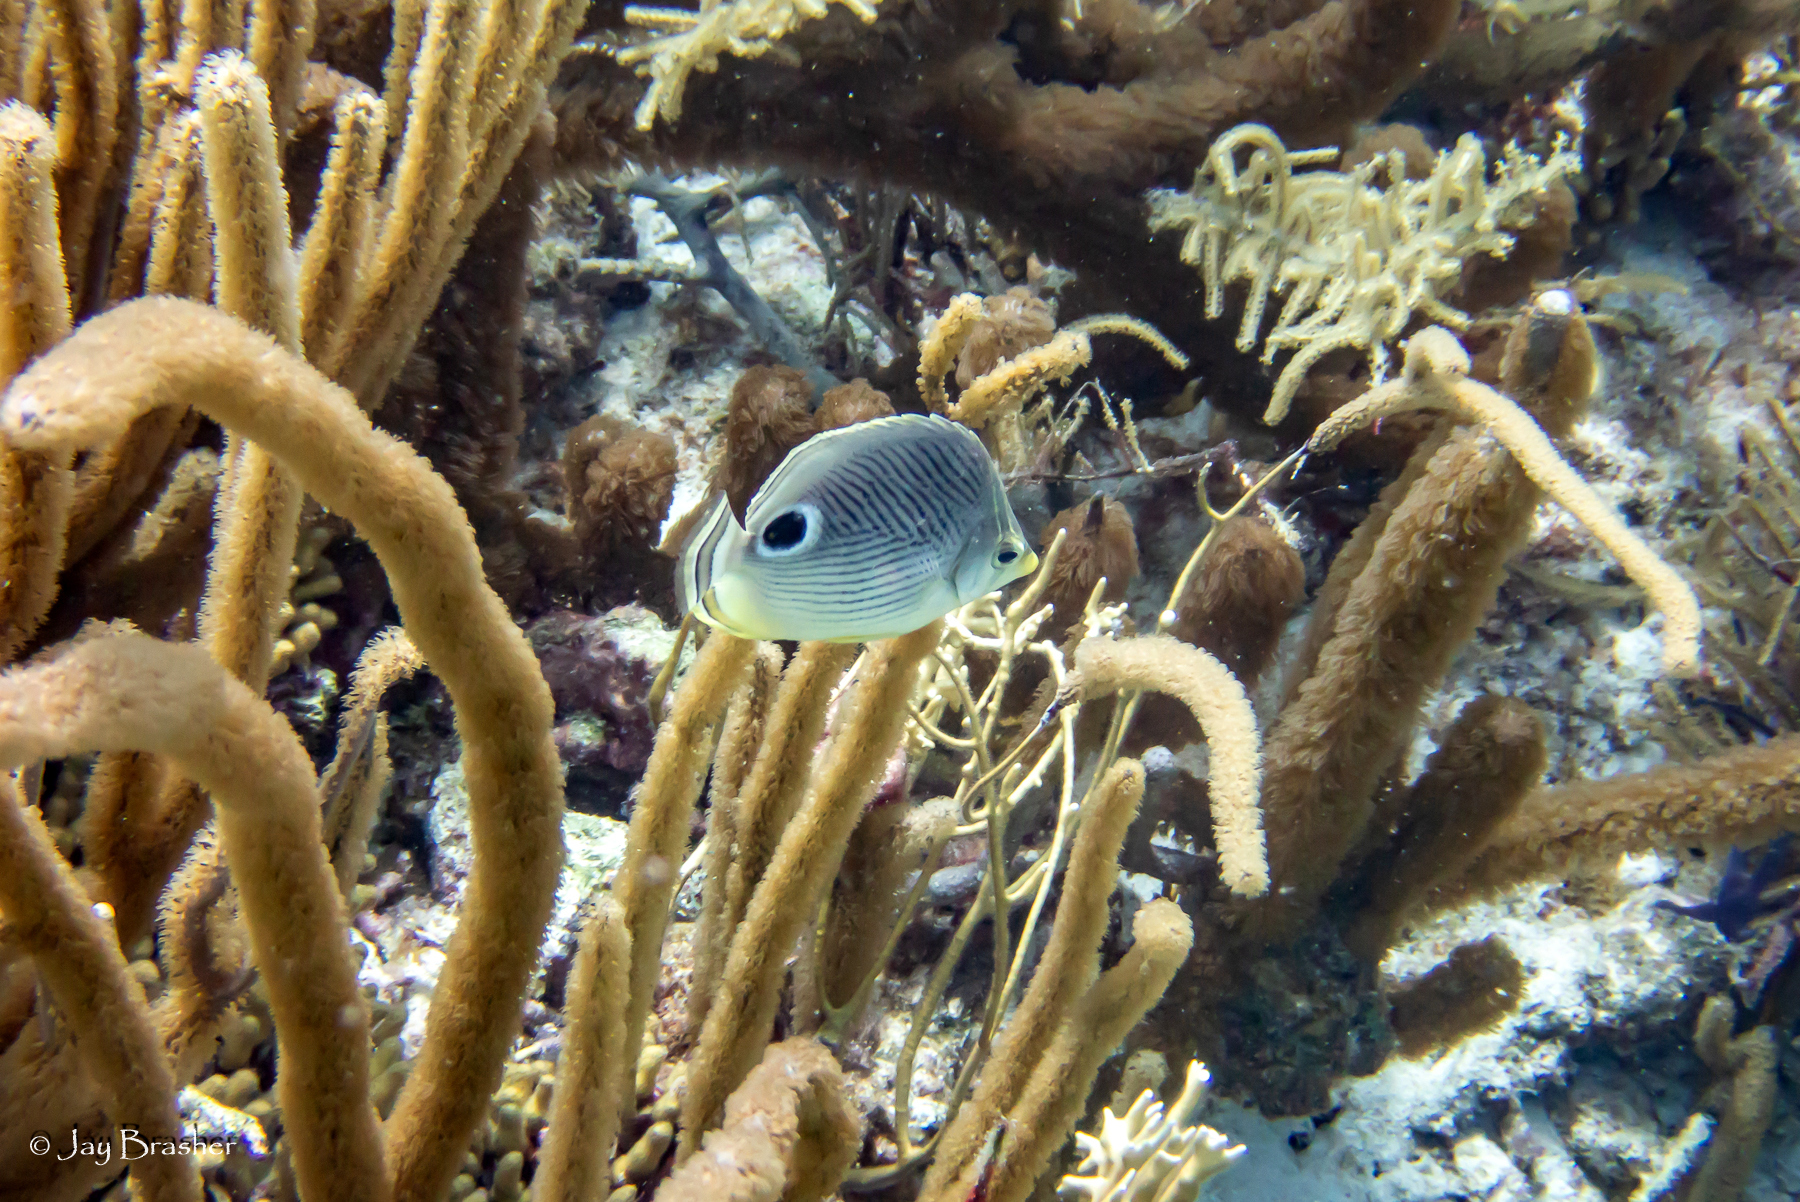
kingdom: Animalia
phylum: Chordata
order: Perciformes
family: Chaetodontidae
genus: Chaetodon
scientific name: Chaetodon capistratus
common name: Kete
